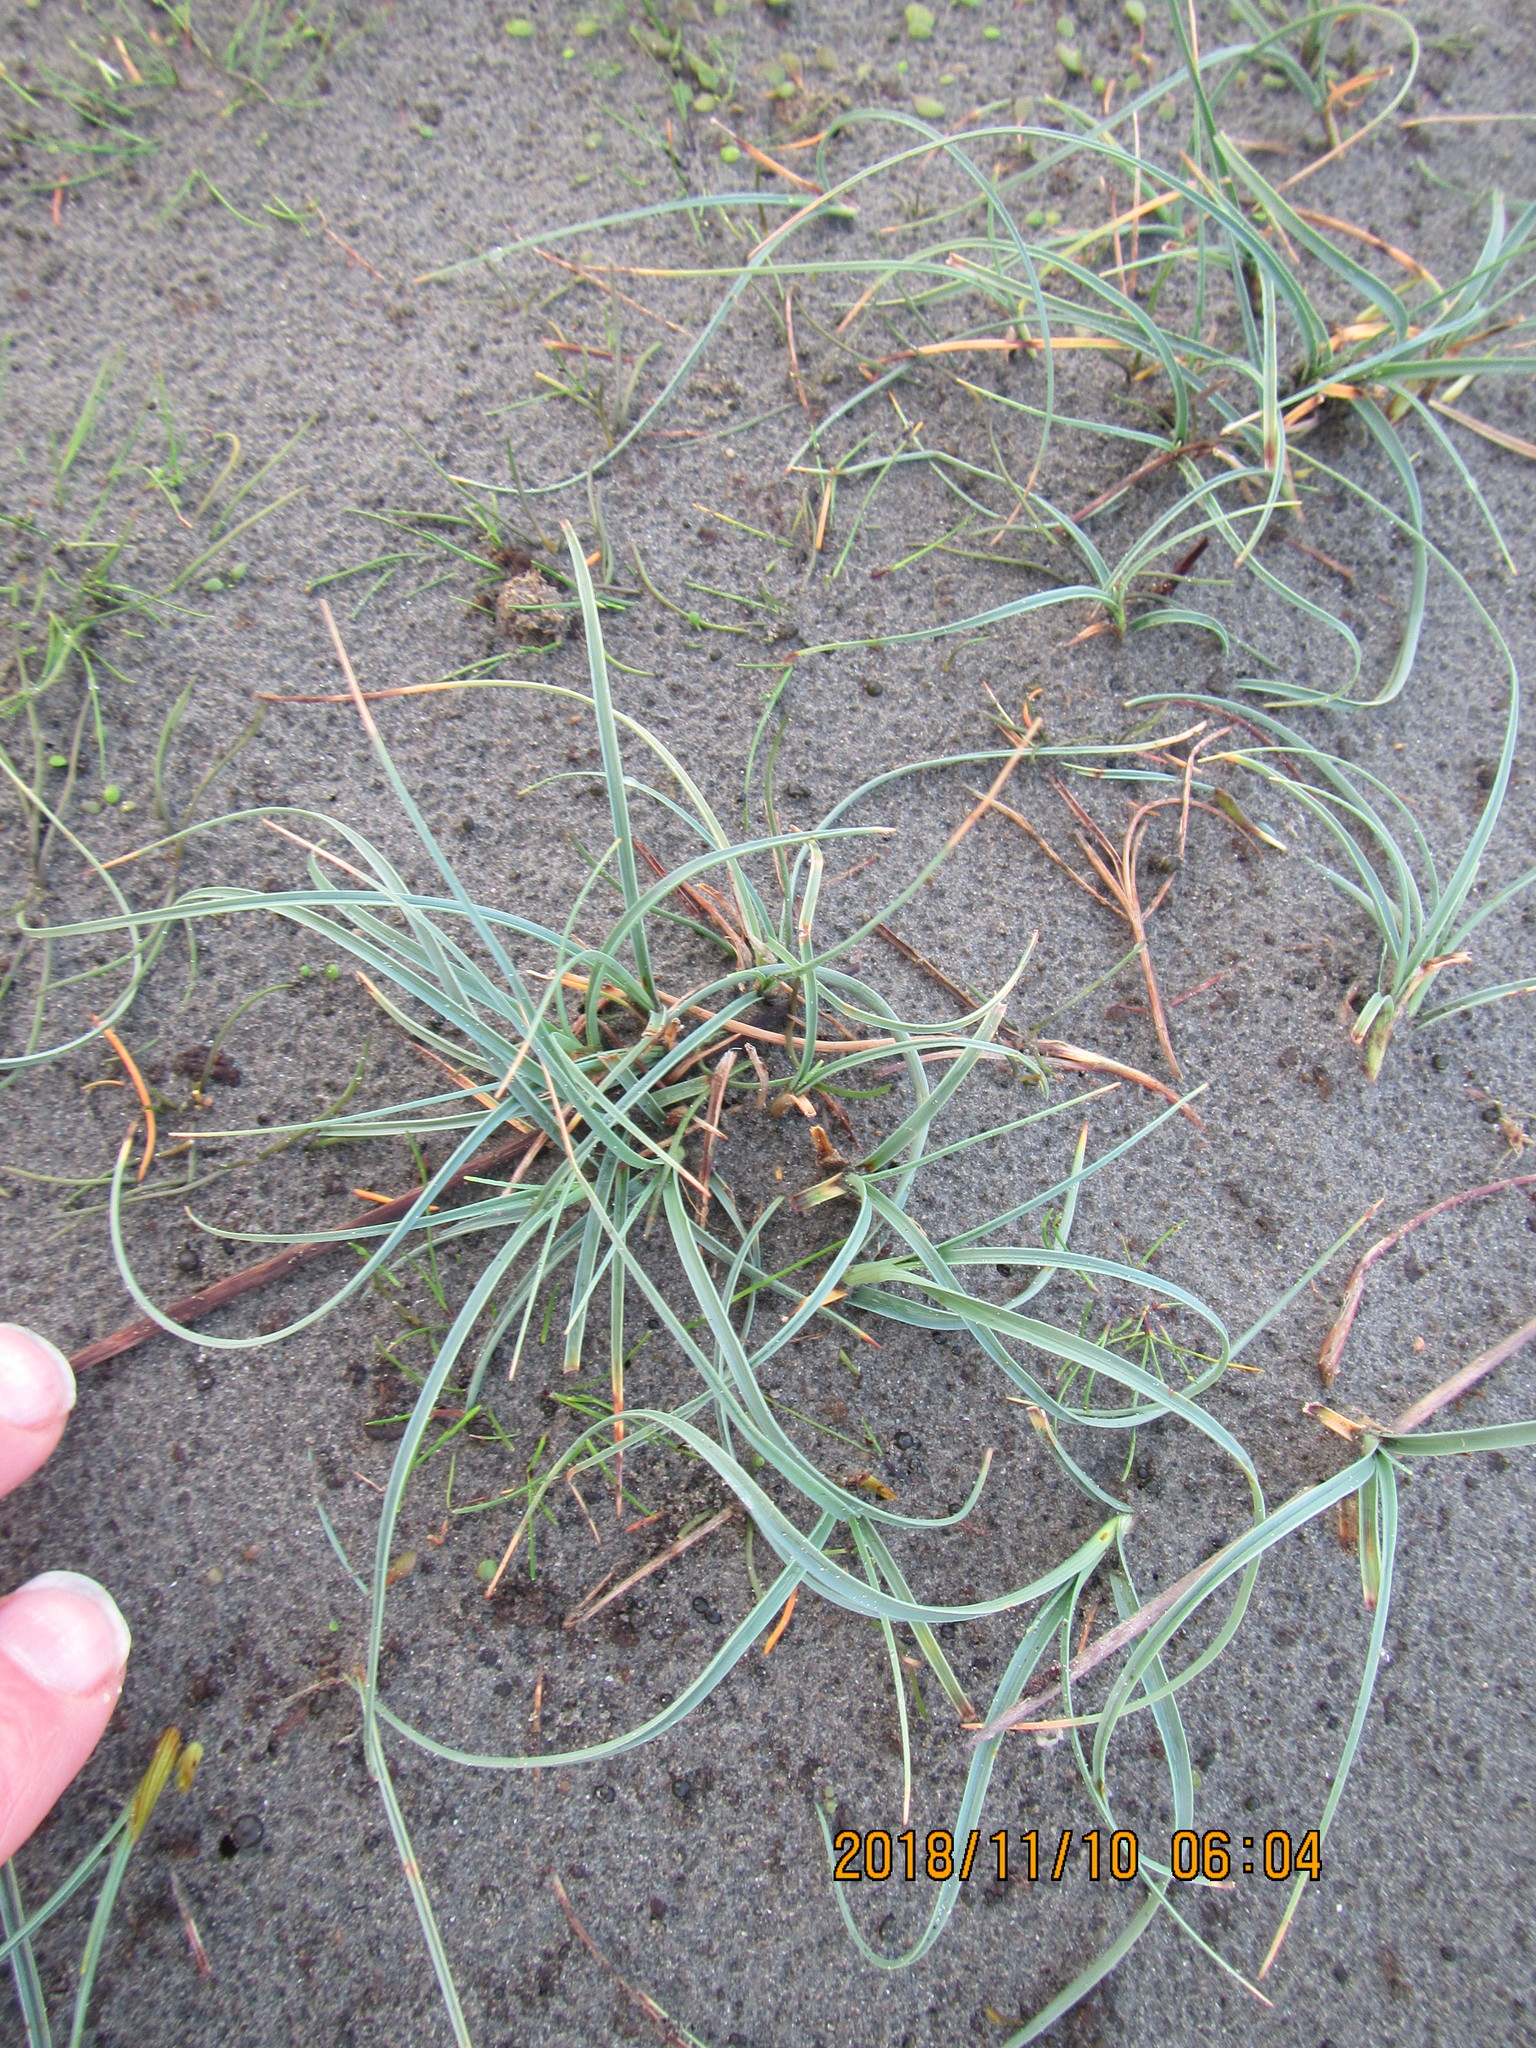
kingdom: Plantae
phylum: Tracheophyta
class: Liliopsida
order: Poales
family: Cyperaceae
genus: Carex
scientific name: Carex pumila
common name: Dwarf sedge
